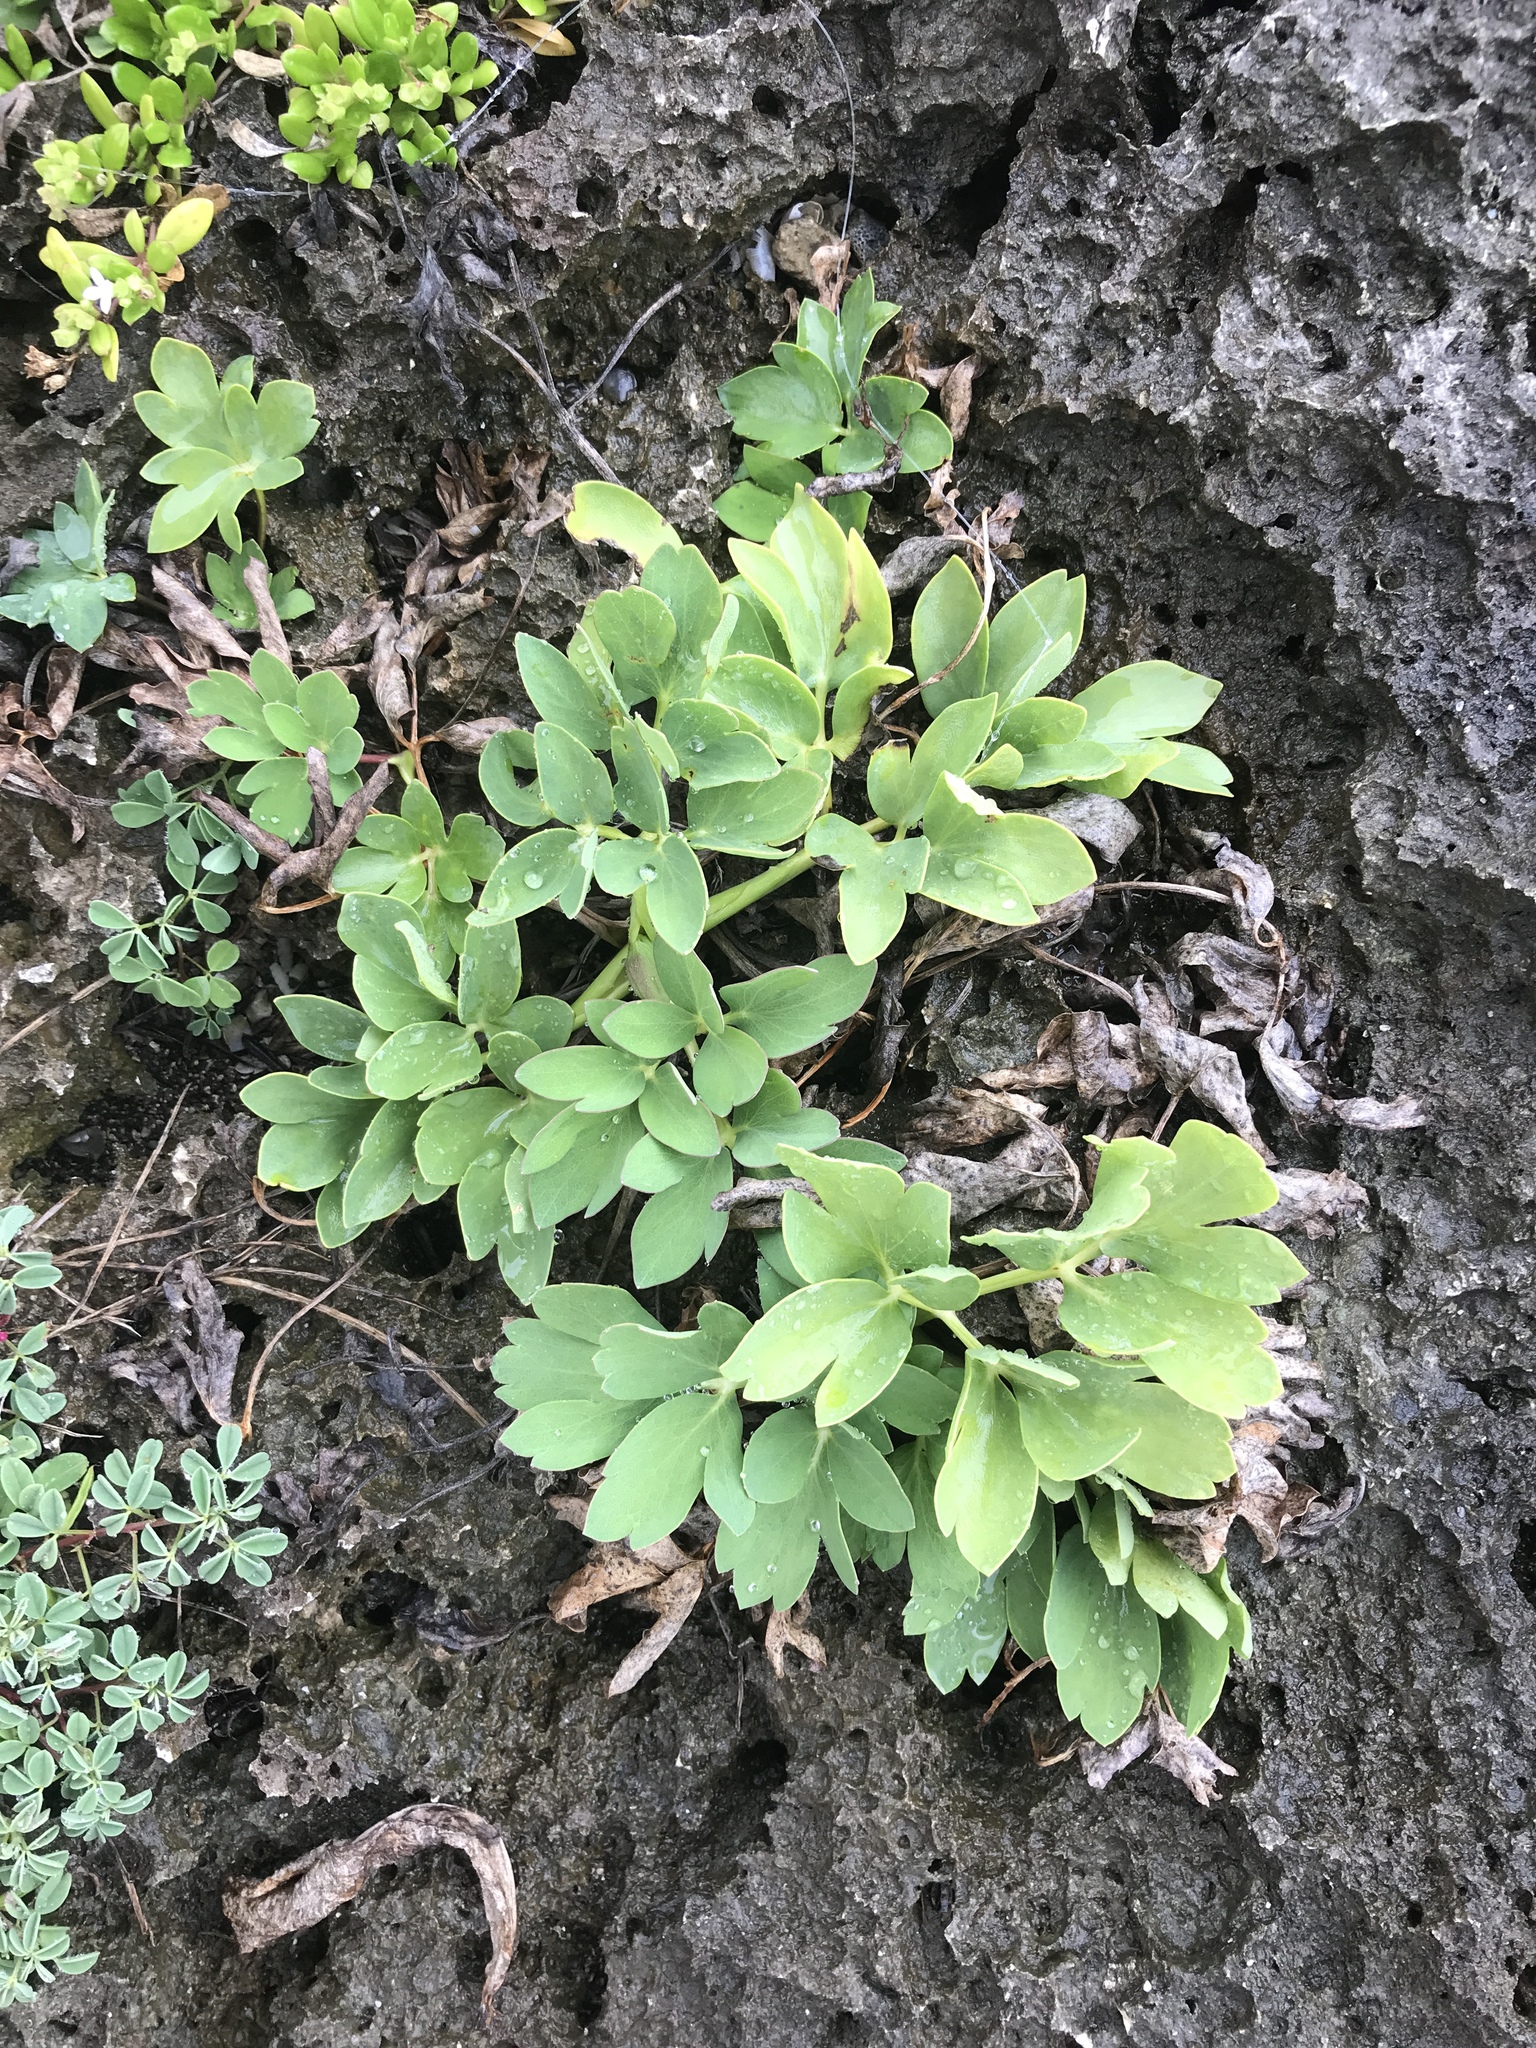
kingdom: Plantae
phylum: Tracheophyta
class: Magnoliopsida
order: Apiales
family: Apiaceae
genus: Peucedanum
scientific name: Peucedanum japonicum
